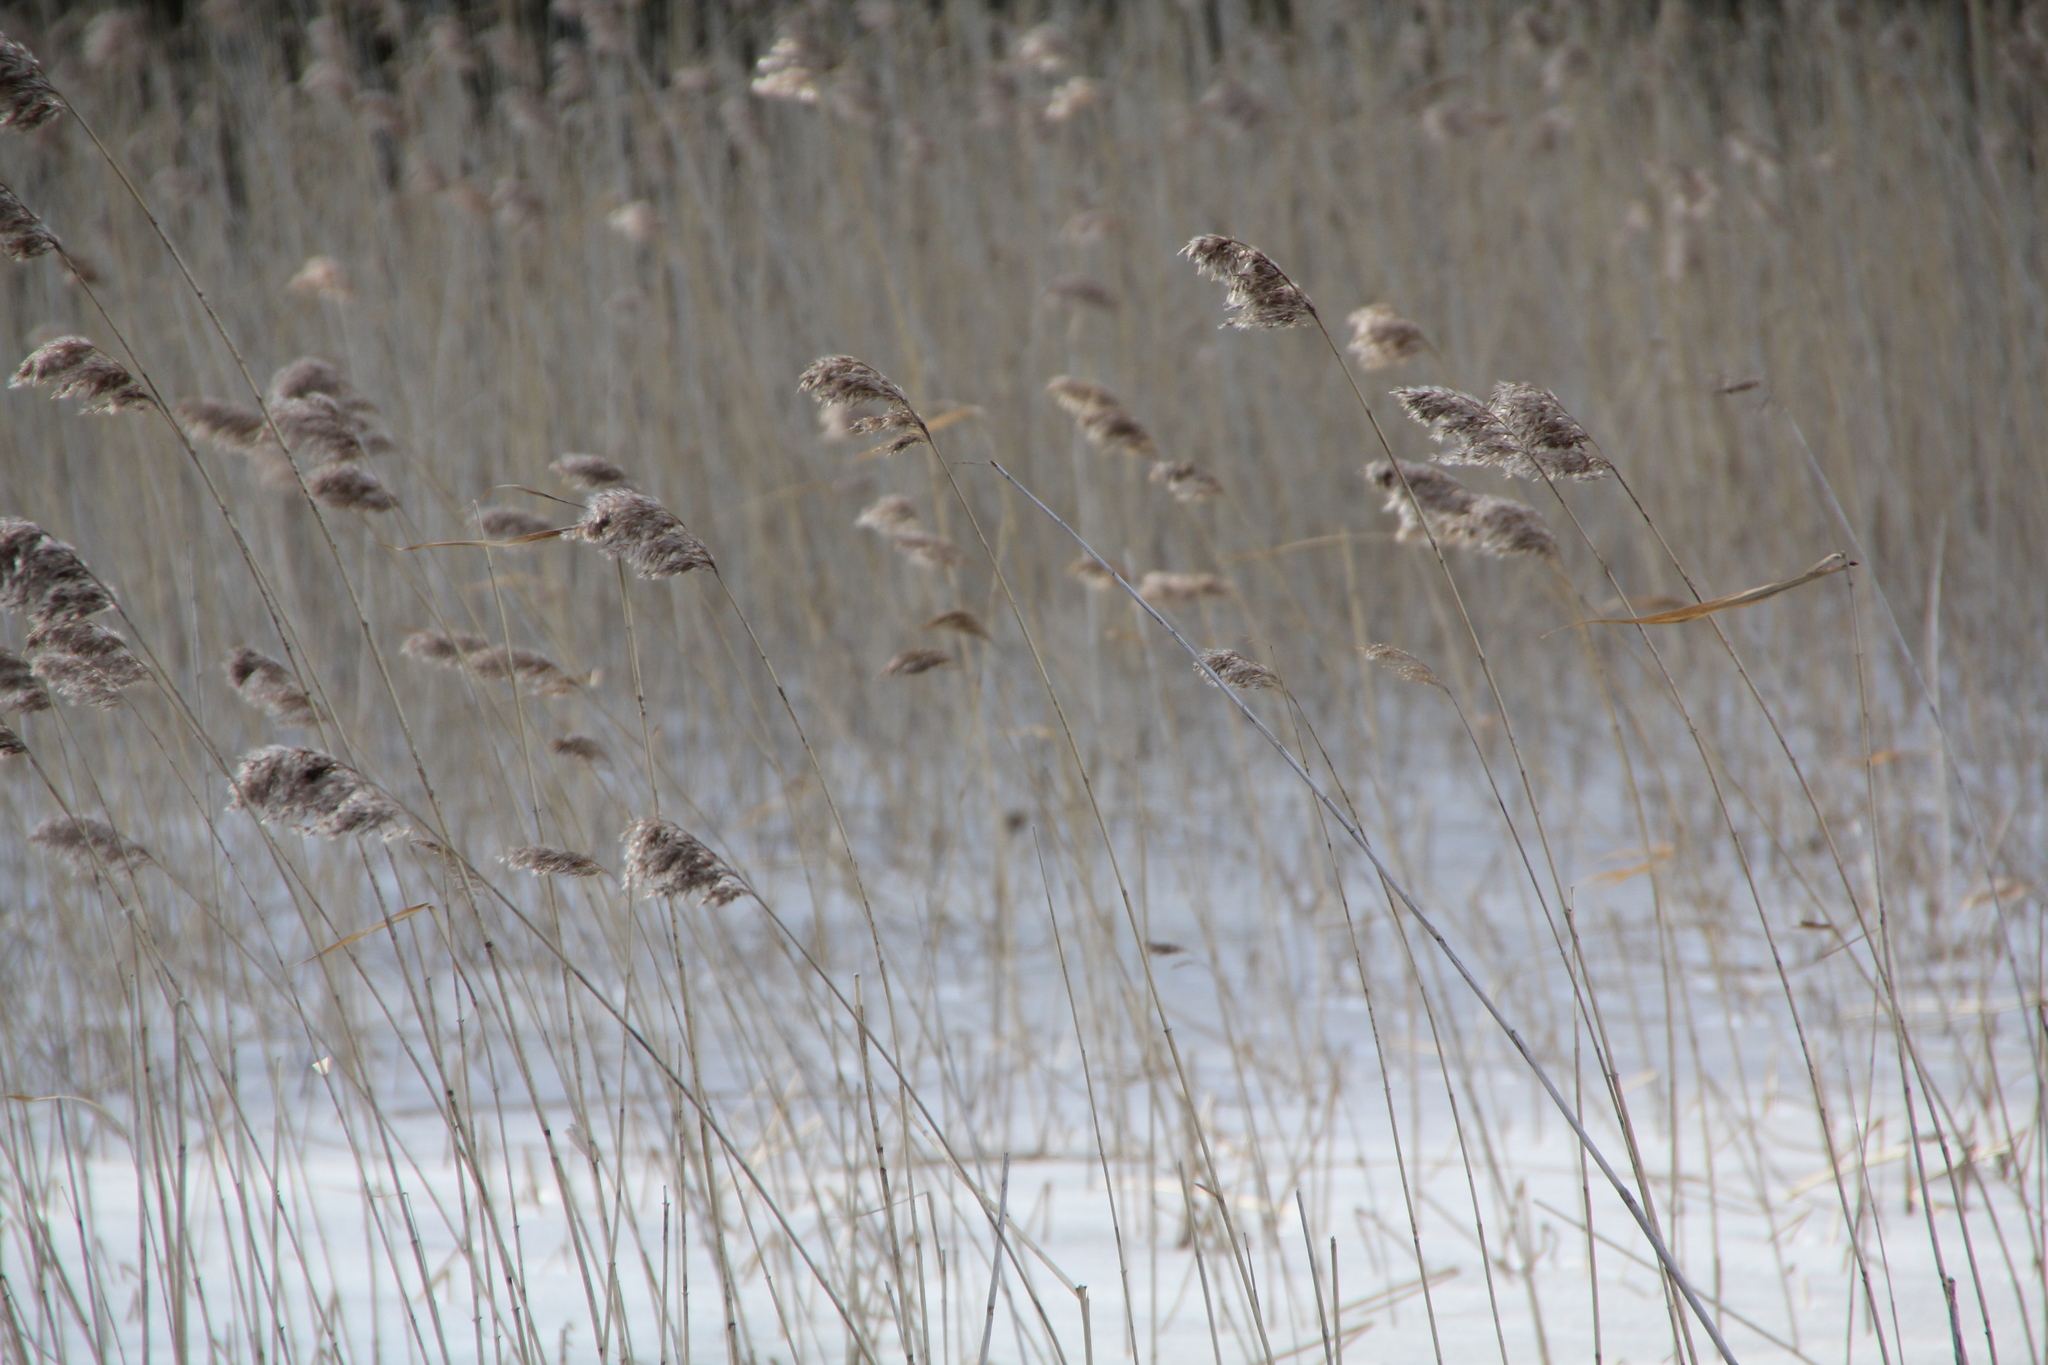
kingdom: Plantae
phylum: Tracheophyta
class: Liliopsida
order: Poales
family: Poaceae
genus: Phragmites
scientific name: Phragmites australis
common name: Common reed
